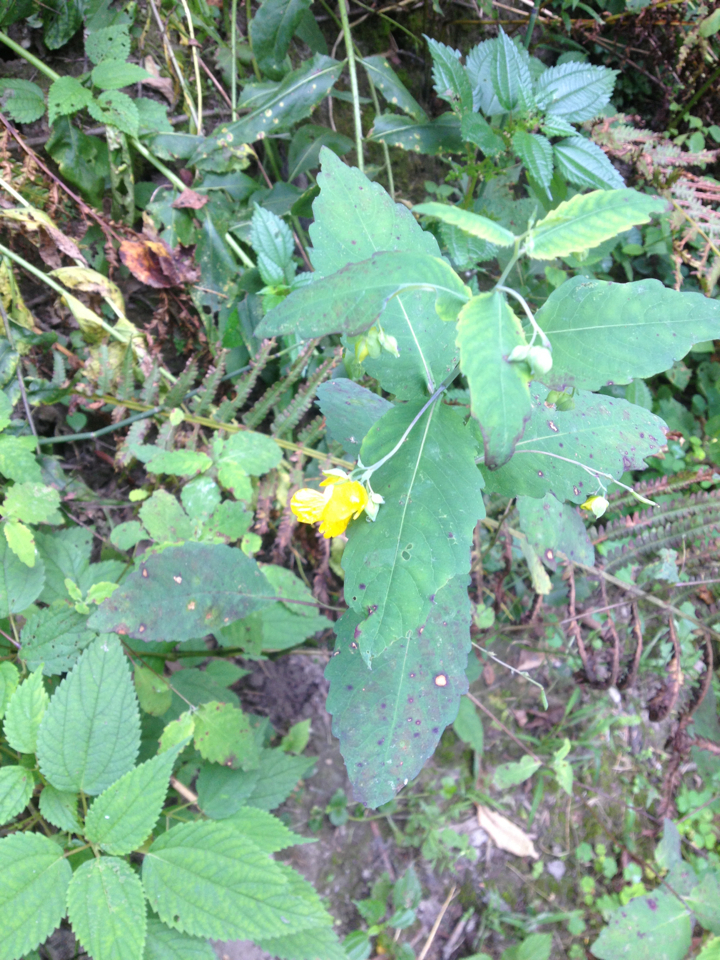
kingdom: Plantae
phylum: Tracheophyta
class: Magnoliopsida
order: Ericales
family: Balsaminaceae
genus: Impatiens
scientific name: Impatiens pallida
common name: Pale snapweed
